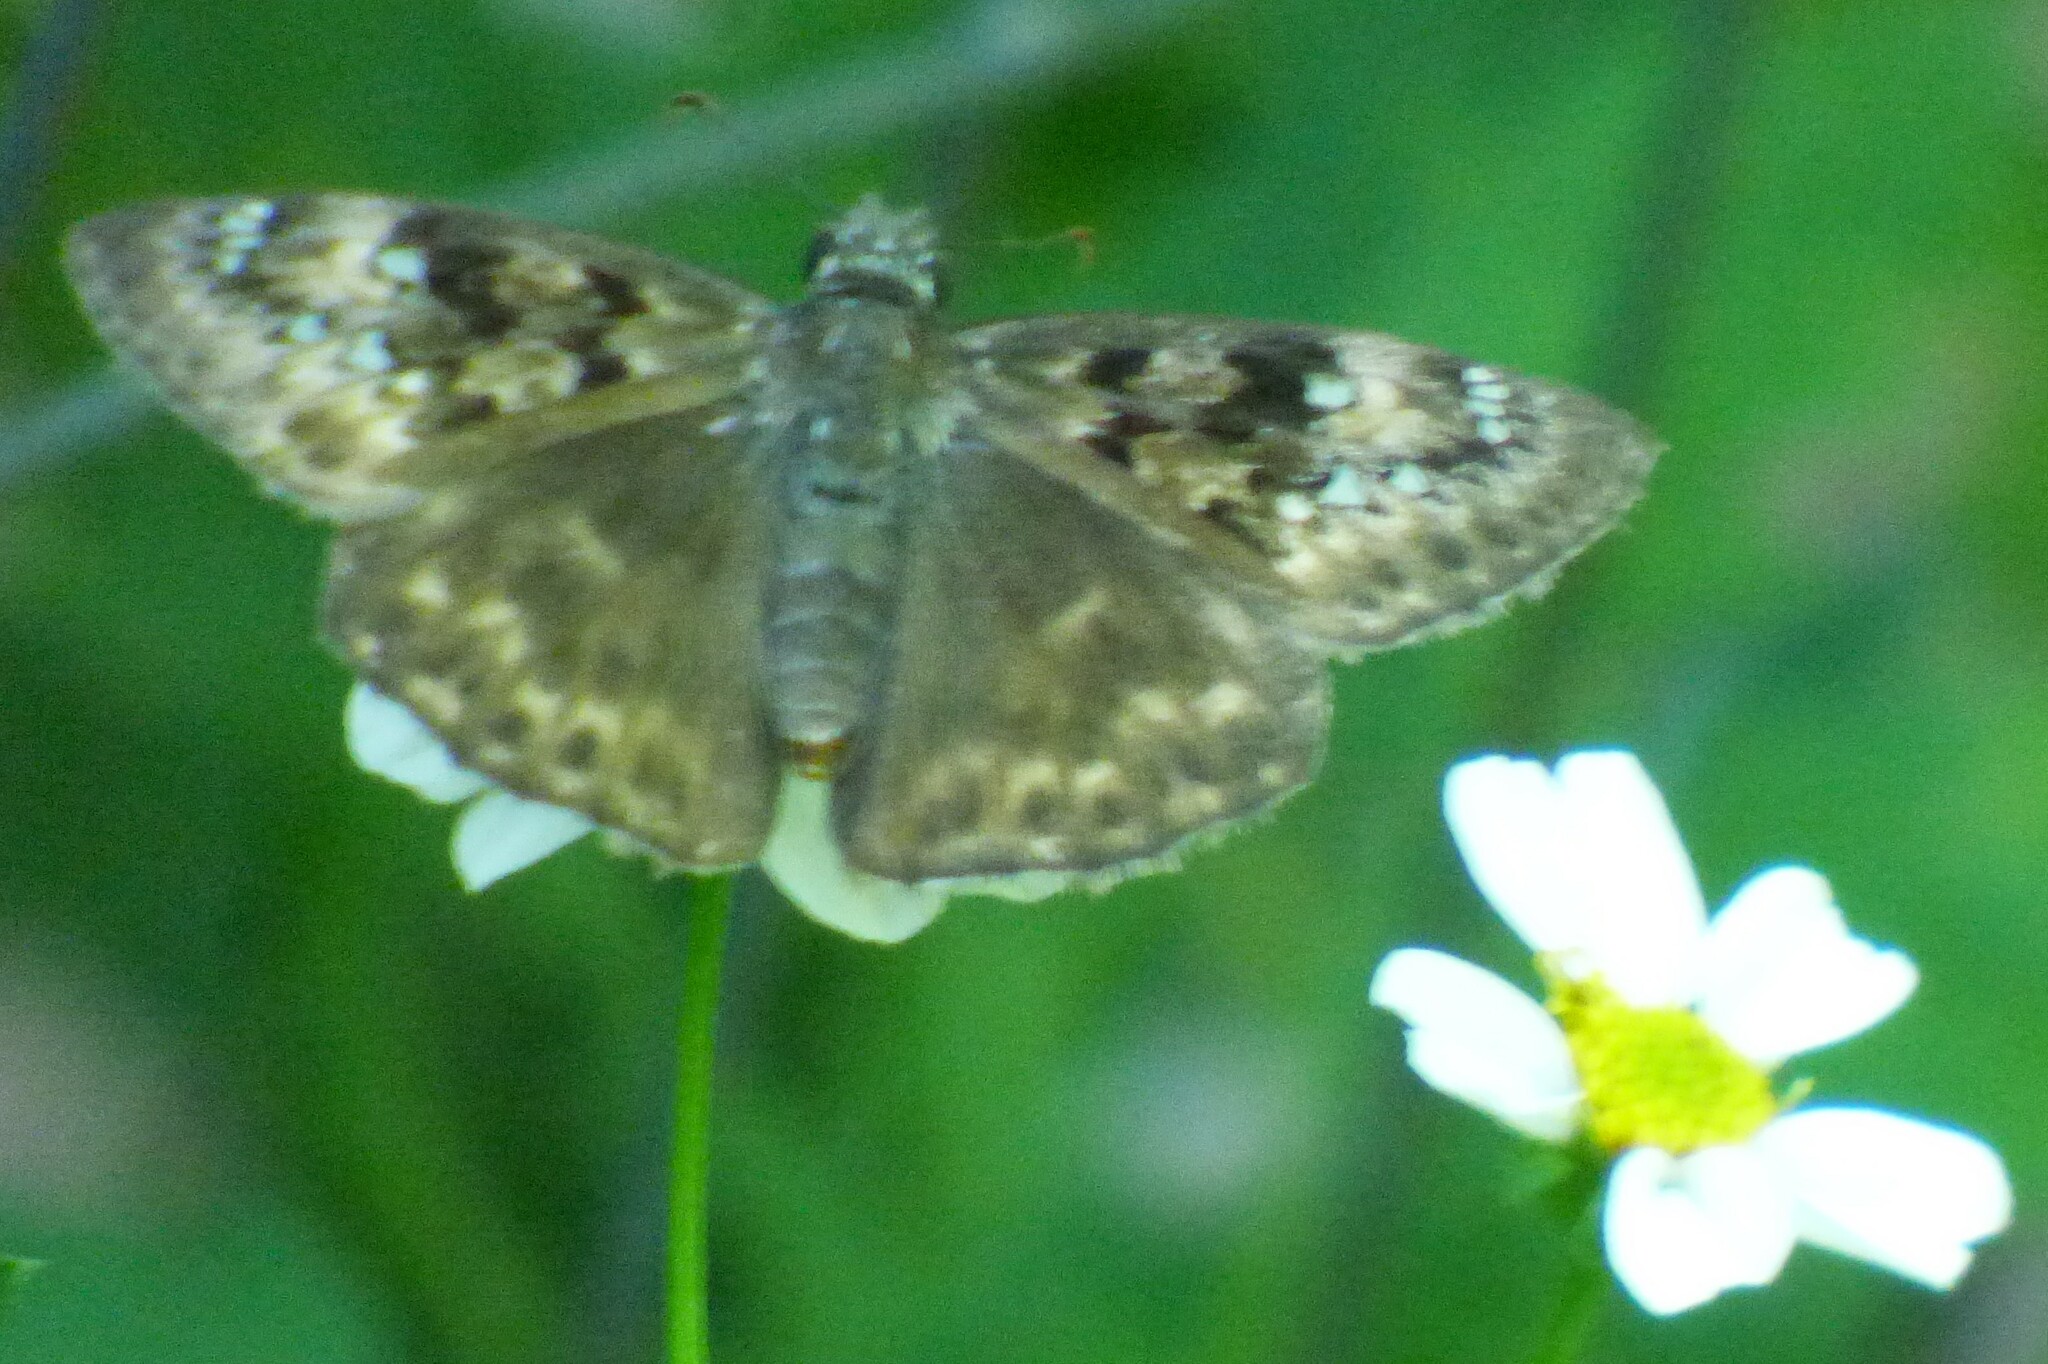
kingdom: Animalia
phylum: Arthropoda
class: Insecta
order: Lepidoptera
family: Hesperiidae
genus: Erynnis
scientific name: Erynnis horatius
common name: Horace's duskywing
